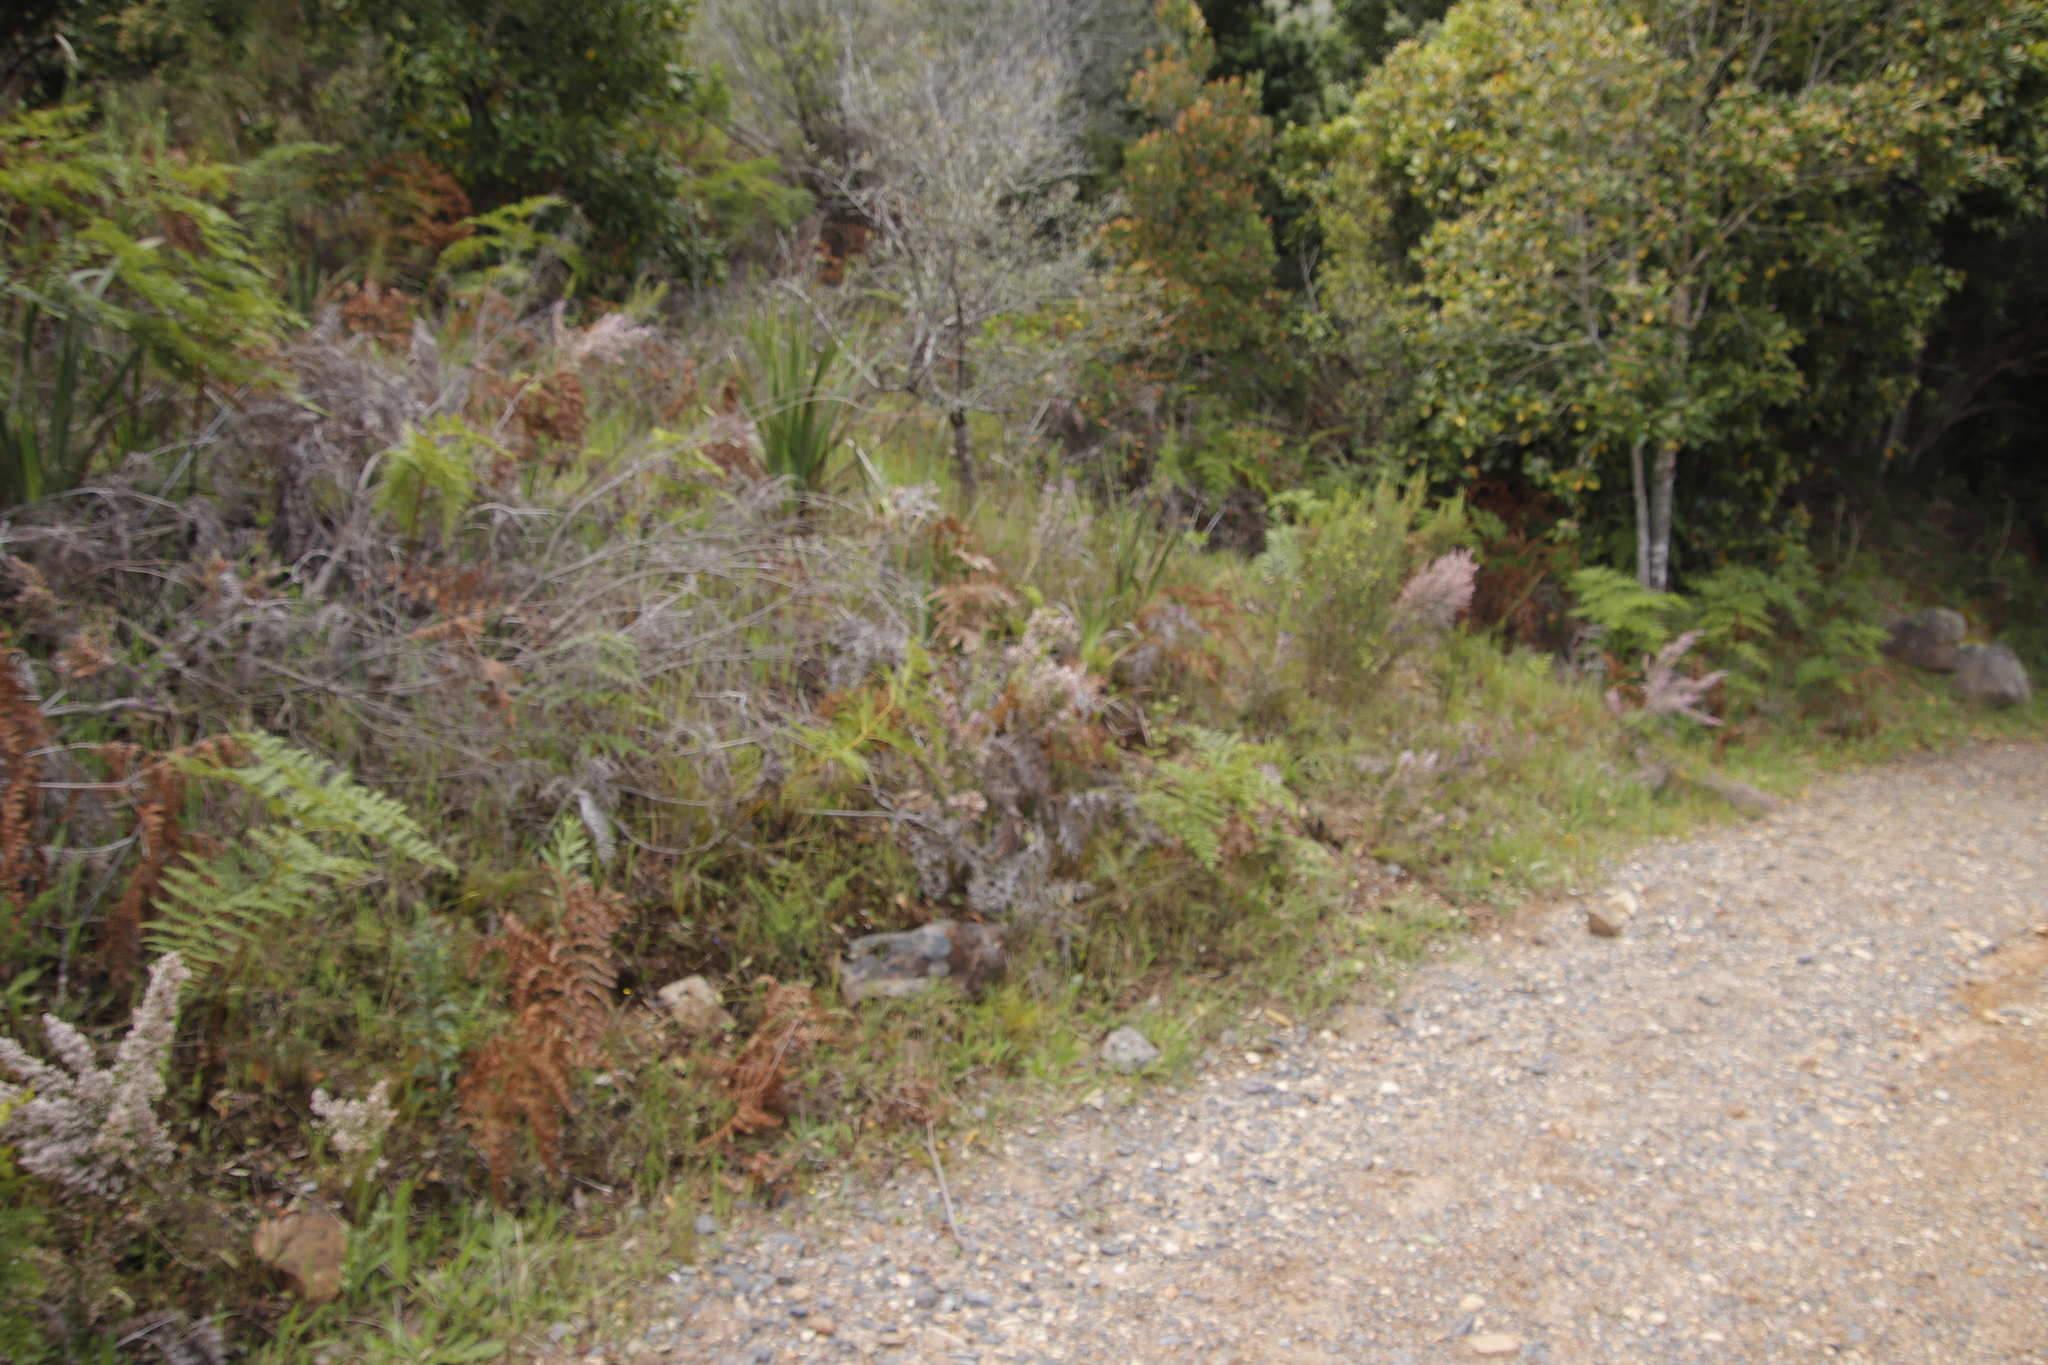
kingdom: Plantae
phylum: Tracheophyta
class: Magnoliopsida
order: Ericales
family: Ericaceae
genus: Erica
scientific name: Erica mauritanica
